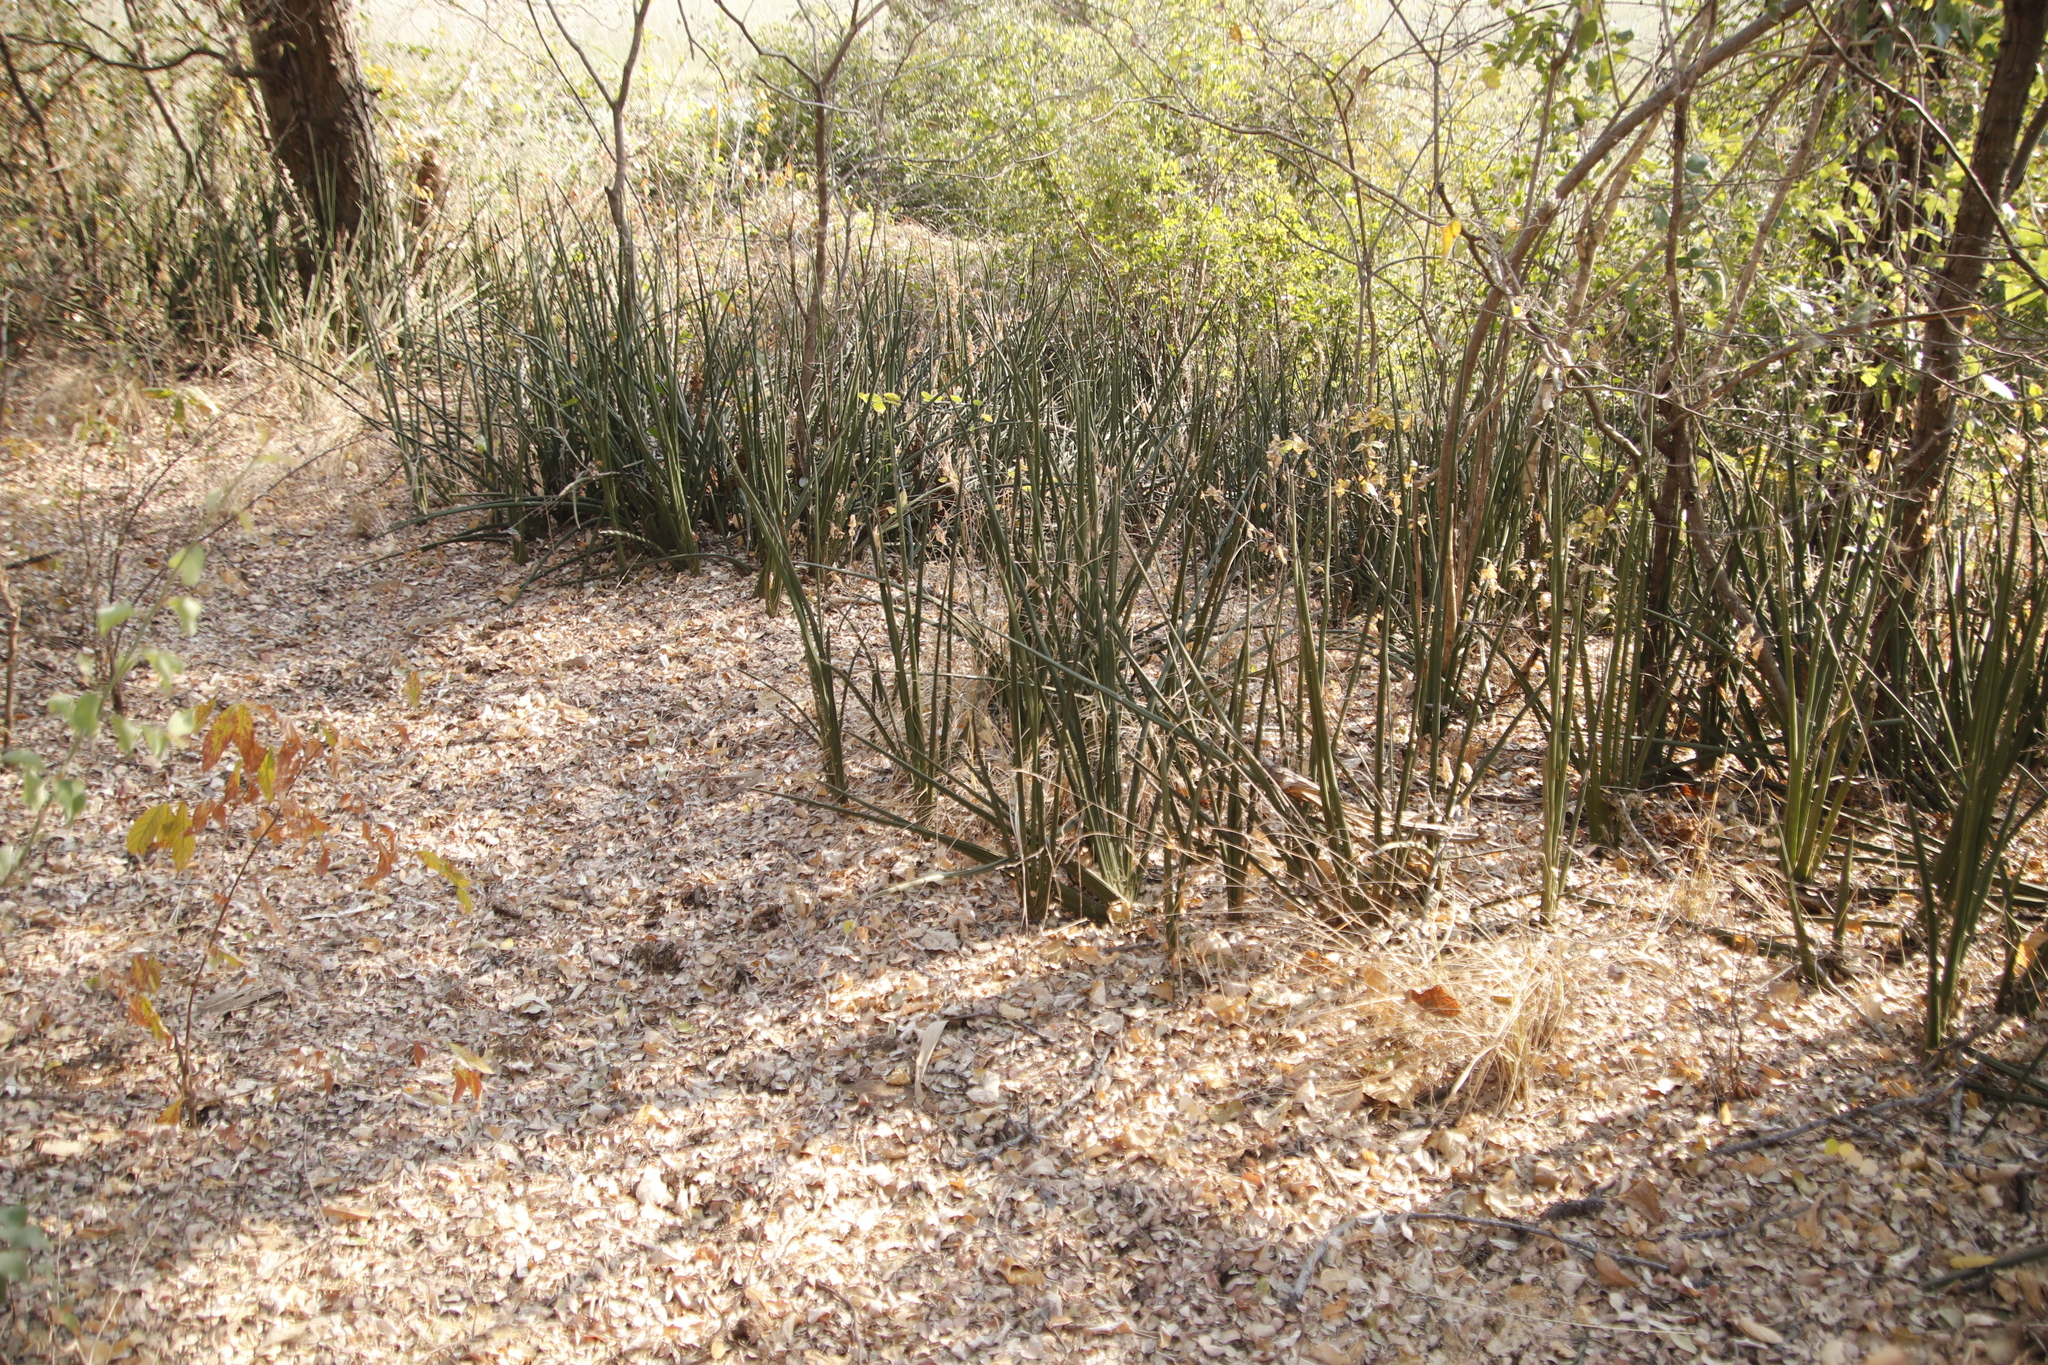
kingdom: Plantae
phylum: Tracheophyta
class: Liliopsida
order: Asparagales
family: Asparagaceae
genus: Dracaena
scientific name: Dracaena pearsonii
